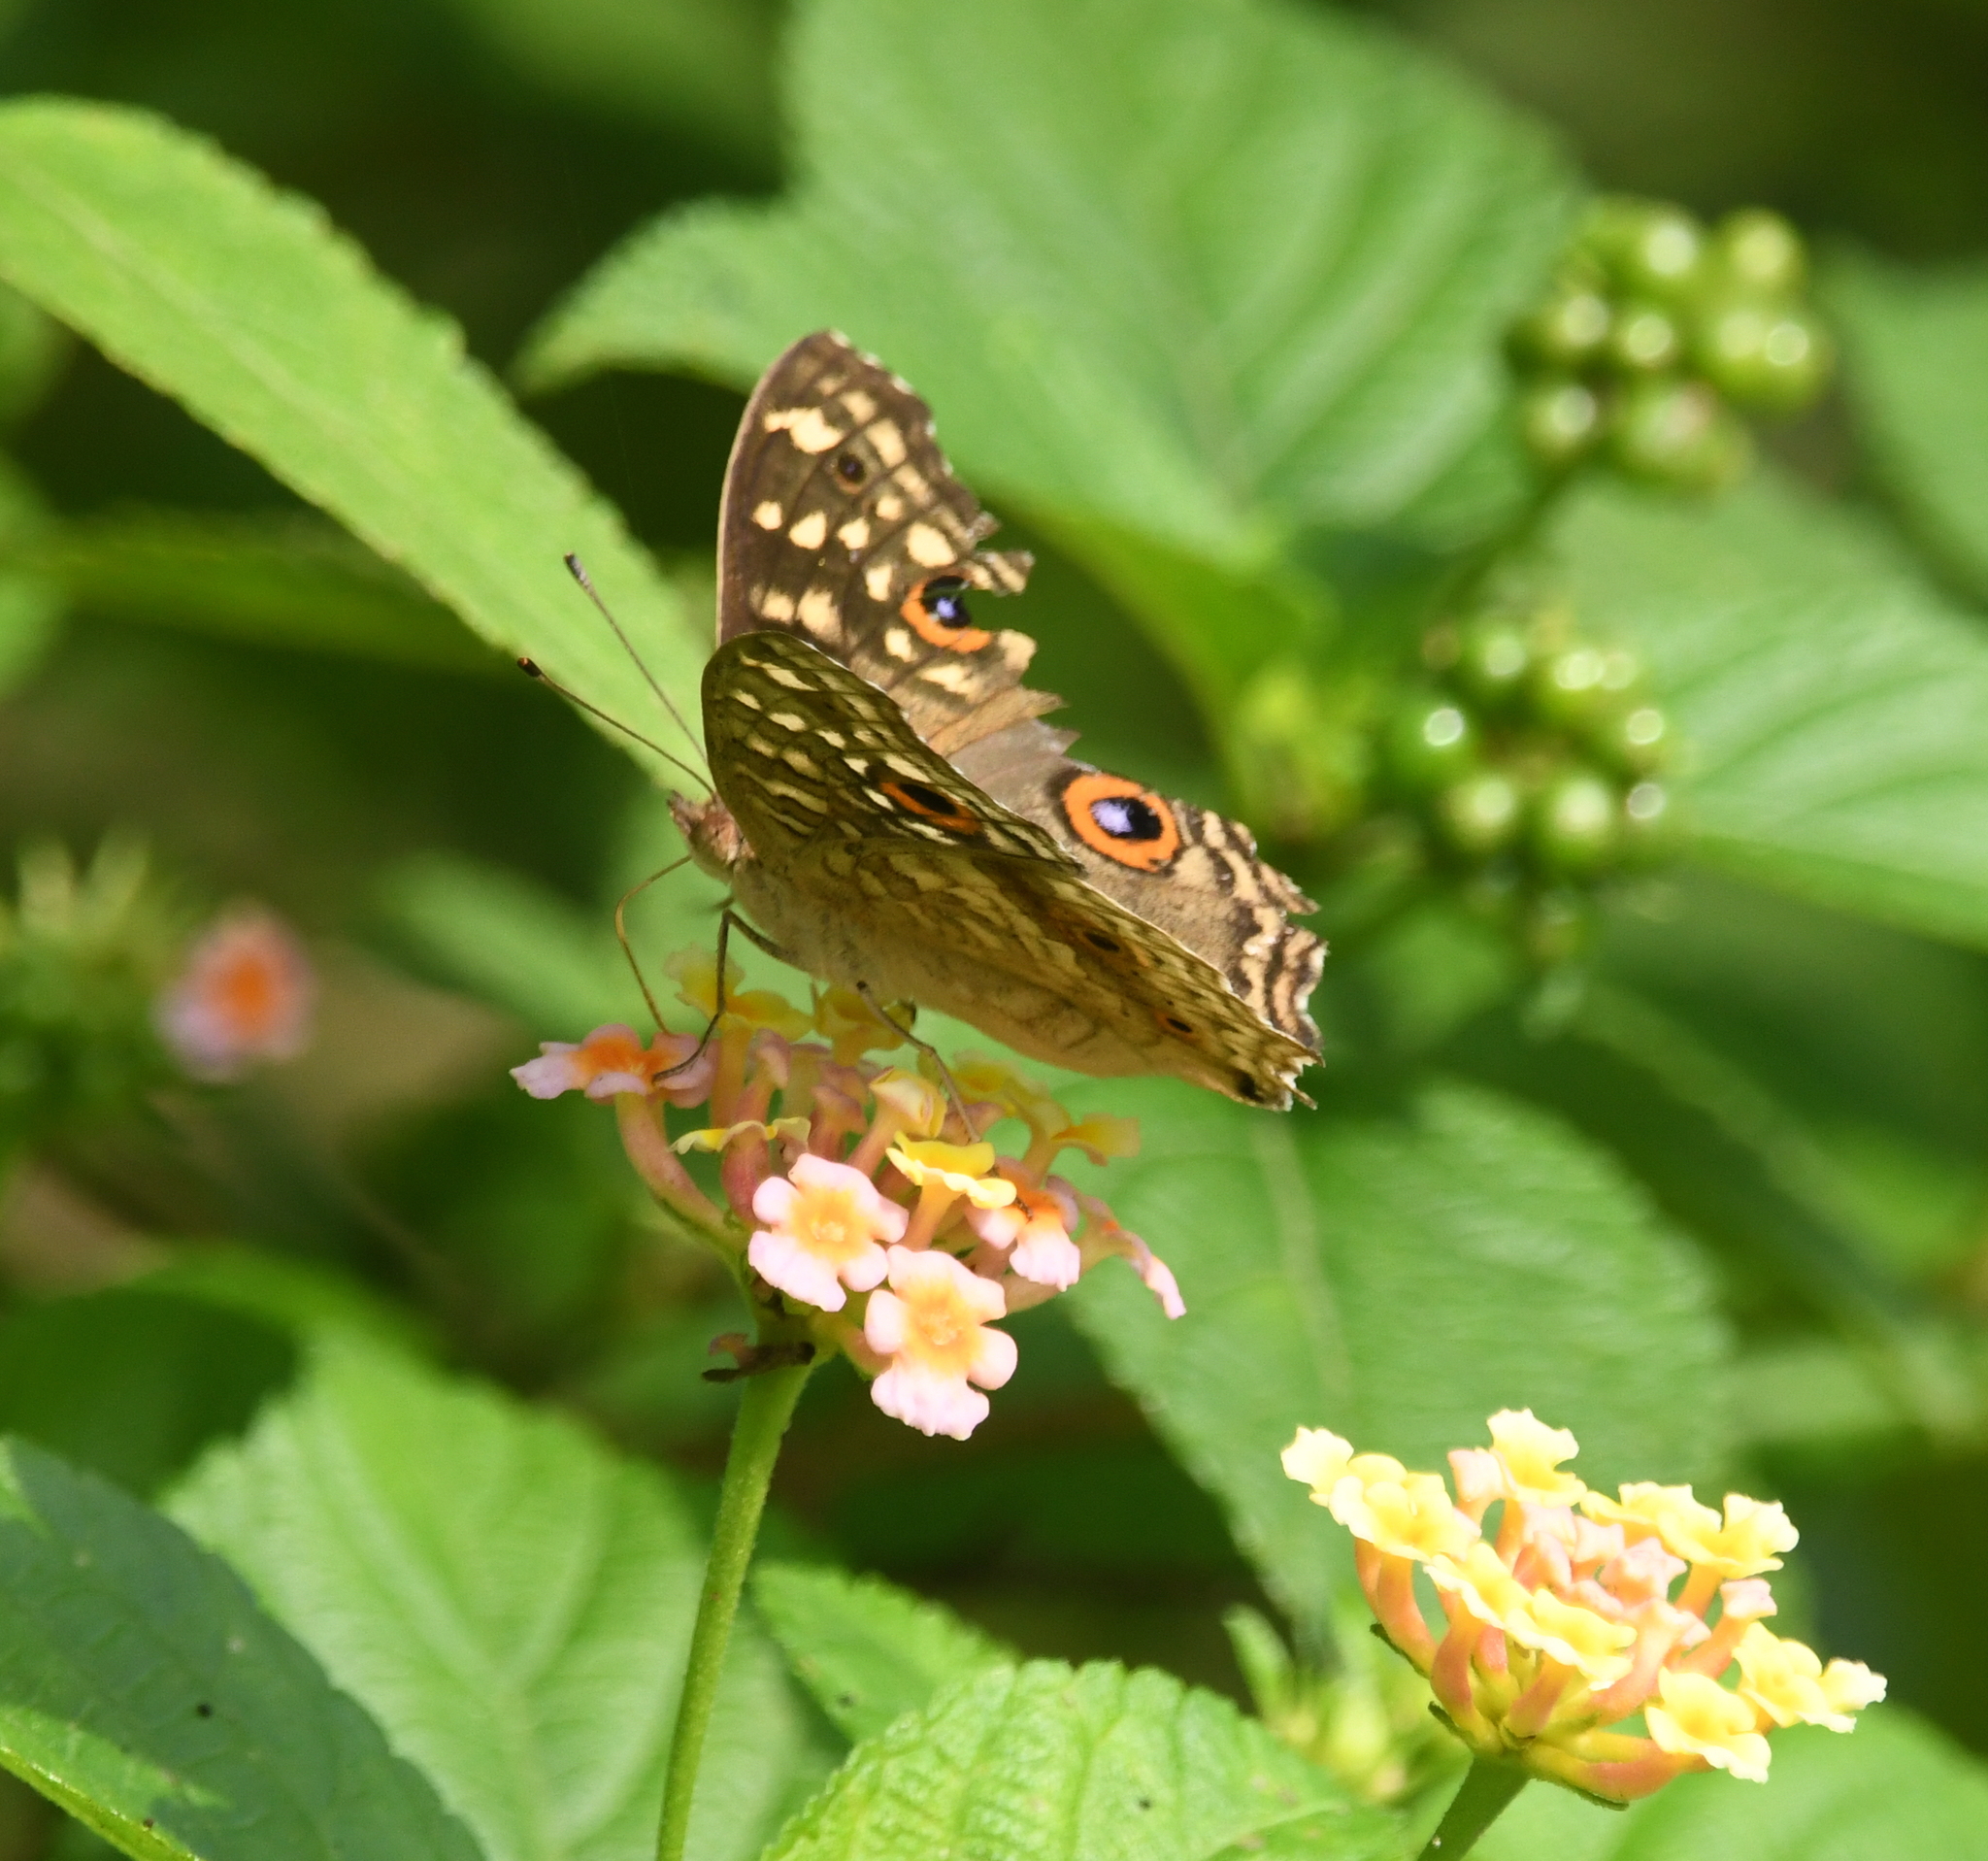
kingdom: Animalia
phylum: Arthropoda
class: Insecta
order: Lepidoptera
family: Nymphalidae
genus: Junonia
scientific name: Junonia lemonias
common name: Lemon pansy
